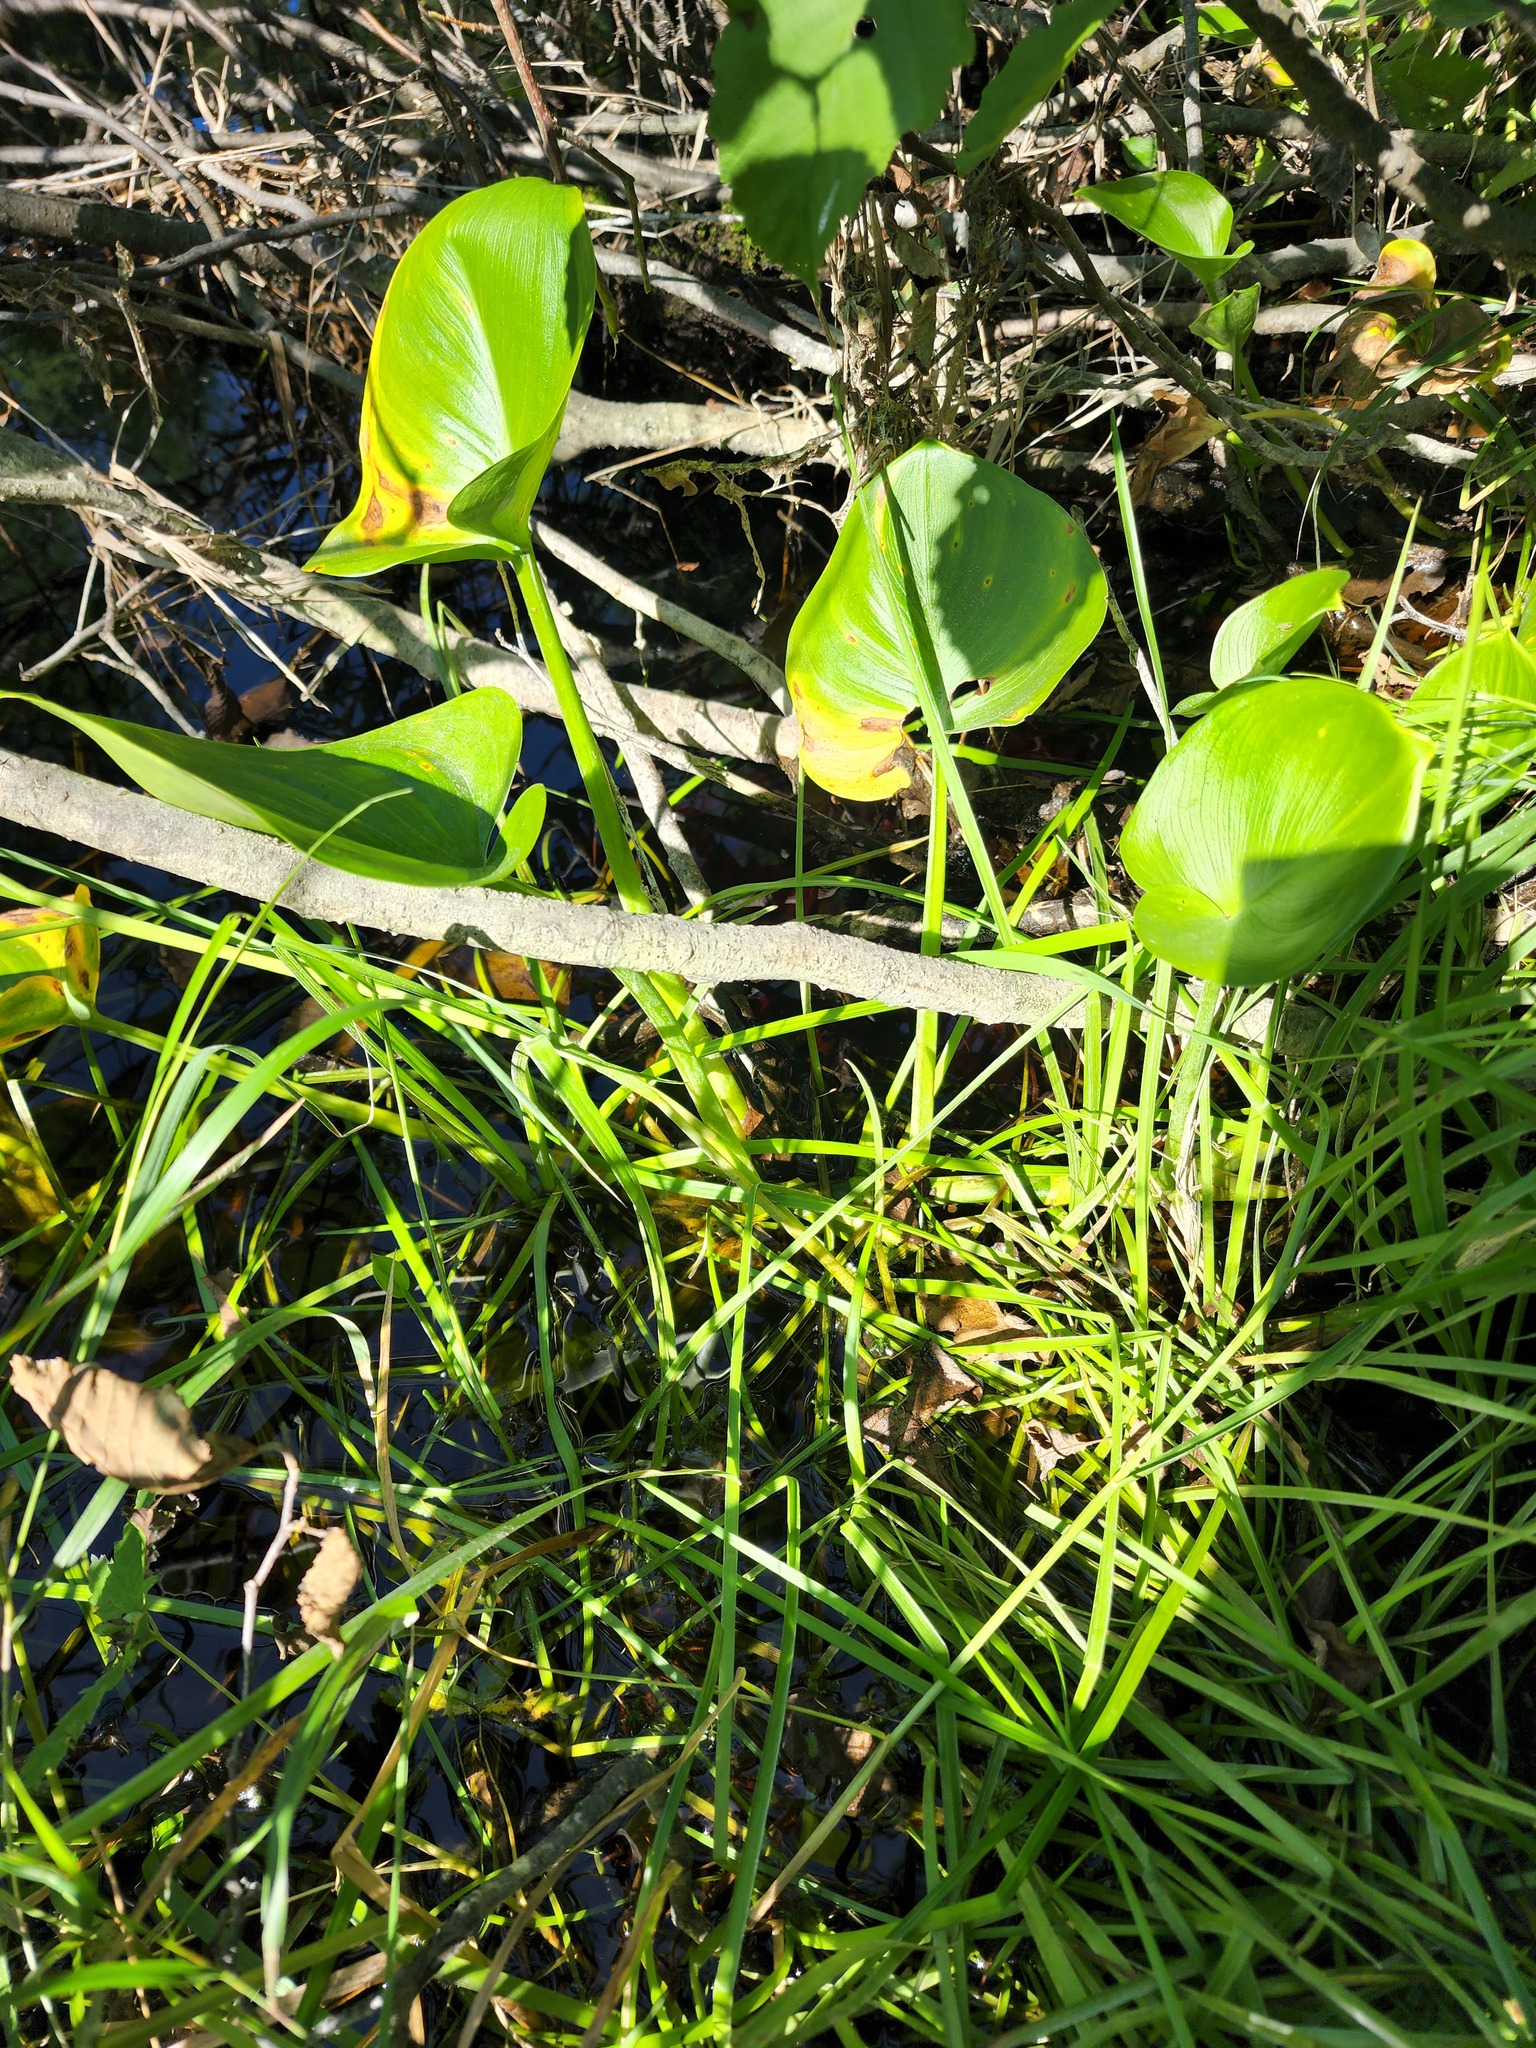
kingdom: Plantae
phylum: Tracheophyta
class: Liliopsida
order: Alismatales
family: Araceae
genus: Calla
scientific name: Calla palustris
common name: Bog arum
